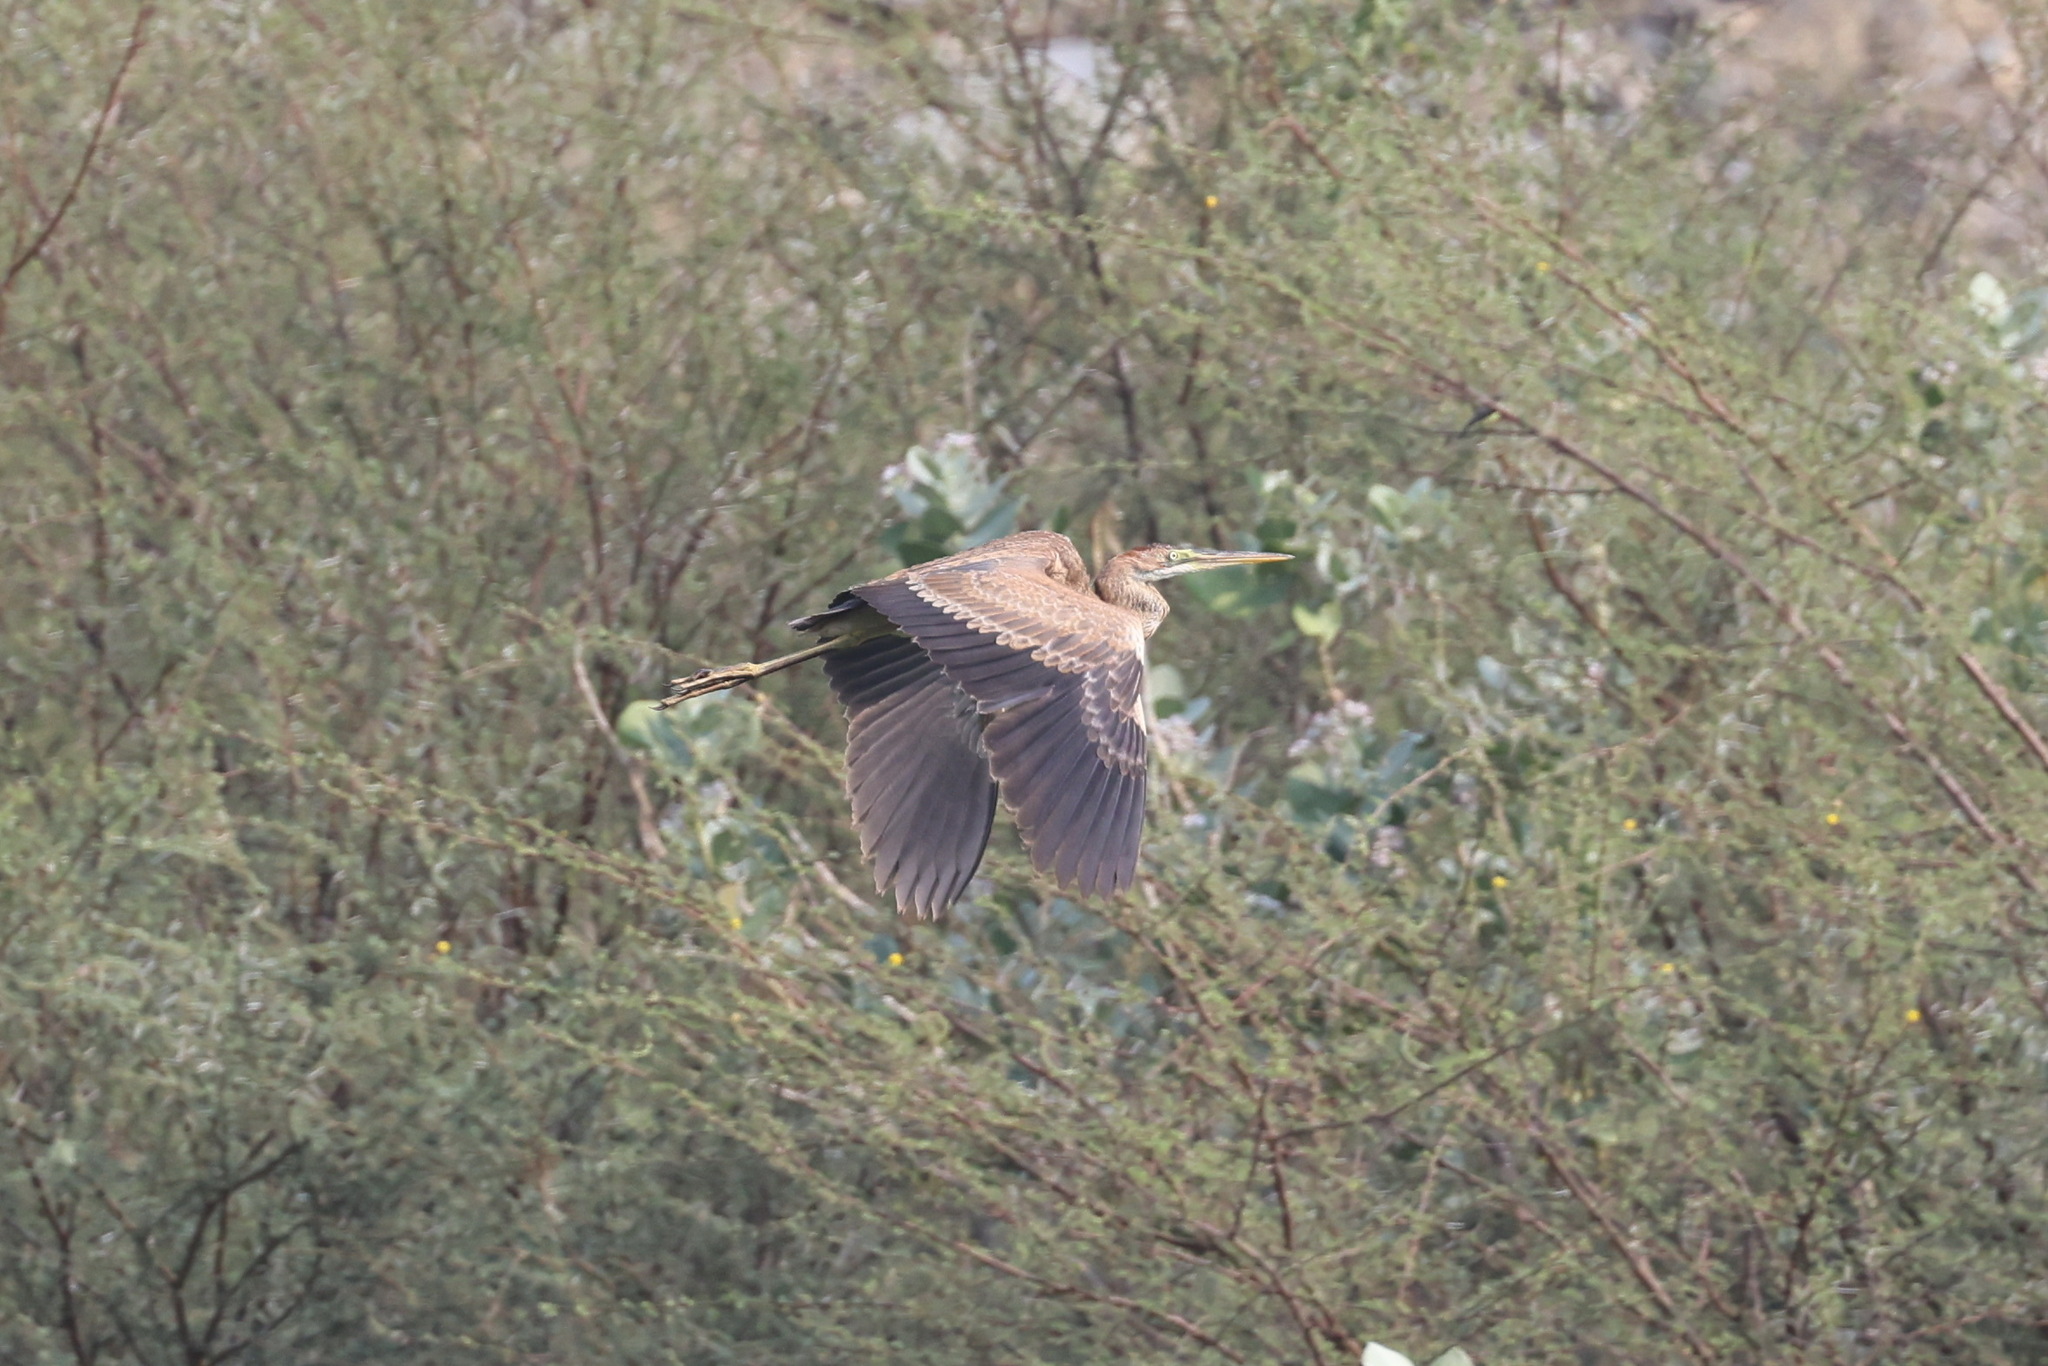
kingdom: Animalia
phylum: Chordata
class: Aves
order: Pelecaniformes
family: Ardeidae
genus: Ardea
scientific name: Ardea purpurea
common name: Purple heron
